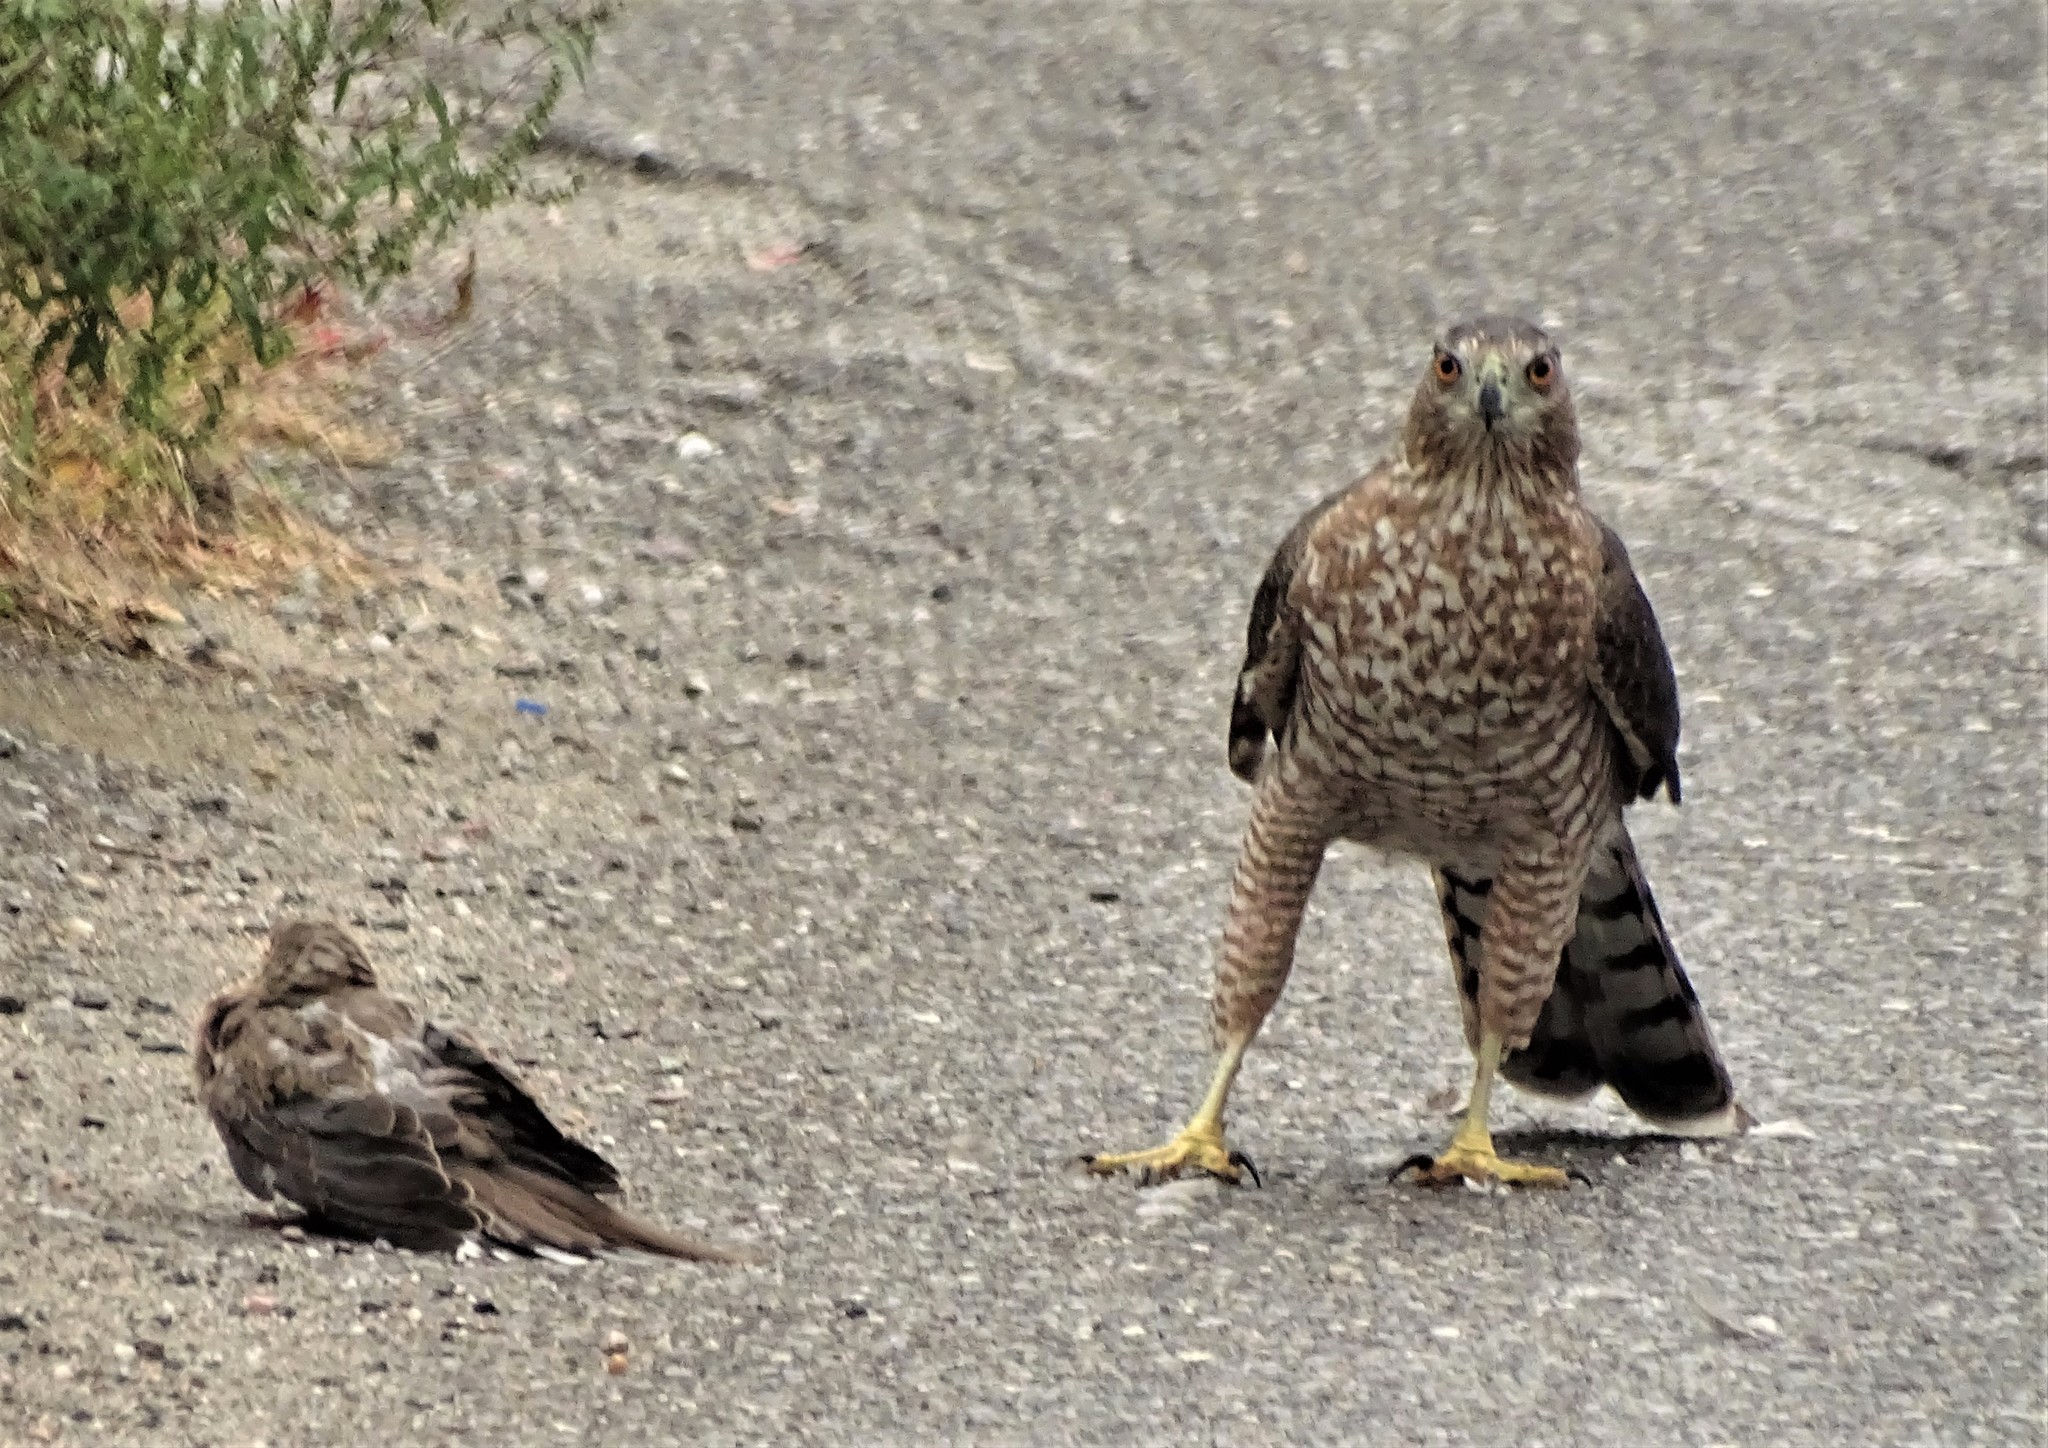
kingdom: Animalia
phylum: Chordata
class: Aves
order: Accipitriformes
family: Accipitridae
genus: Accipiter
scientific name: Accipiter cooperii
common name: Cooper's hawk
